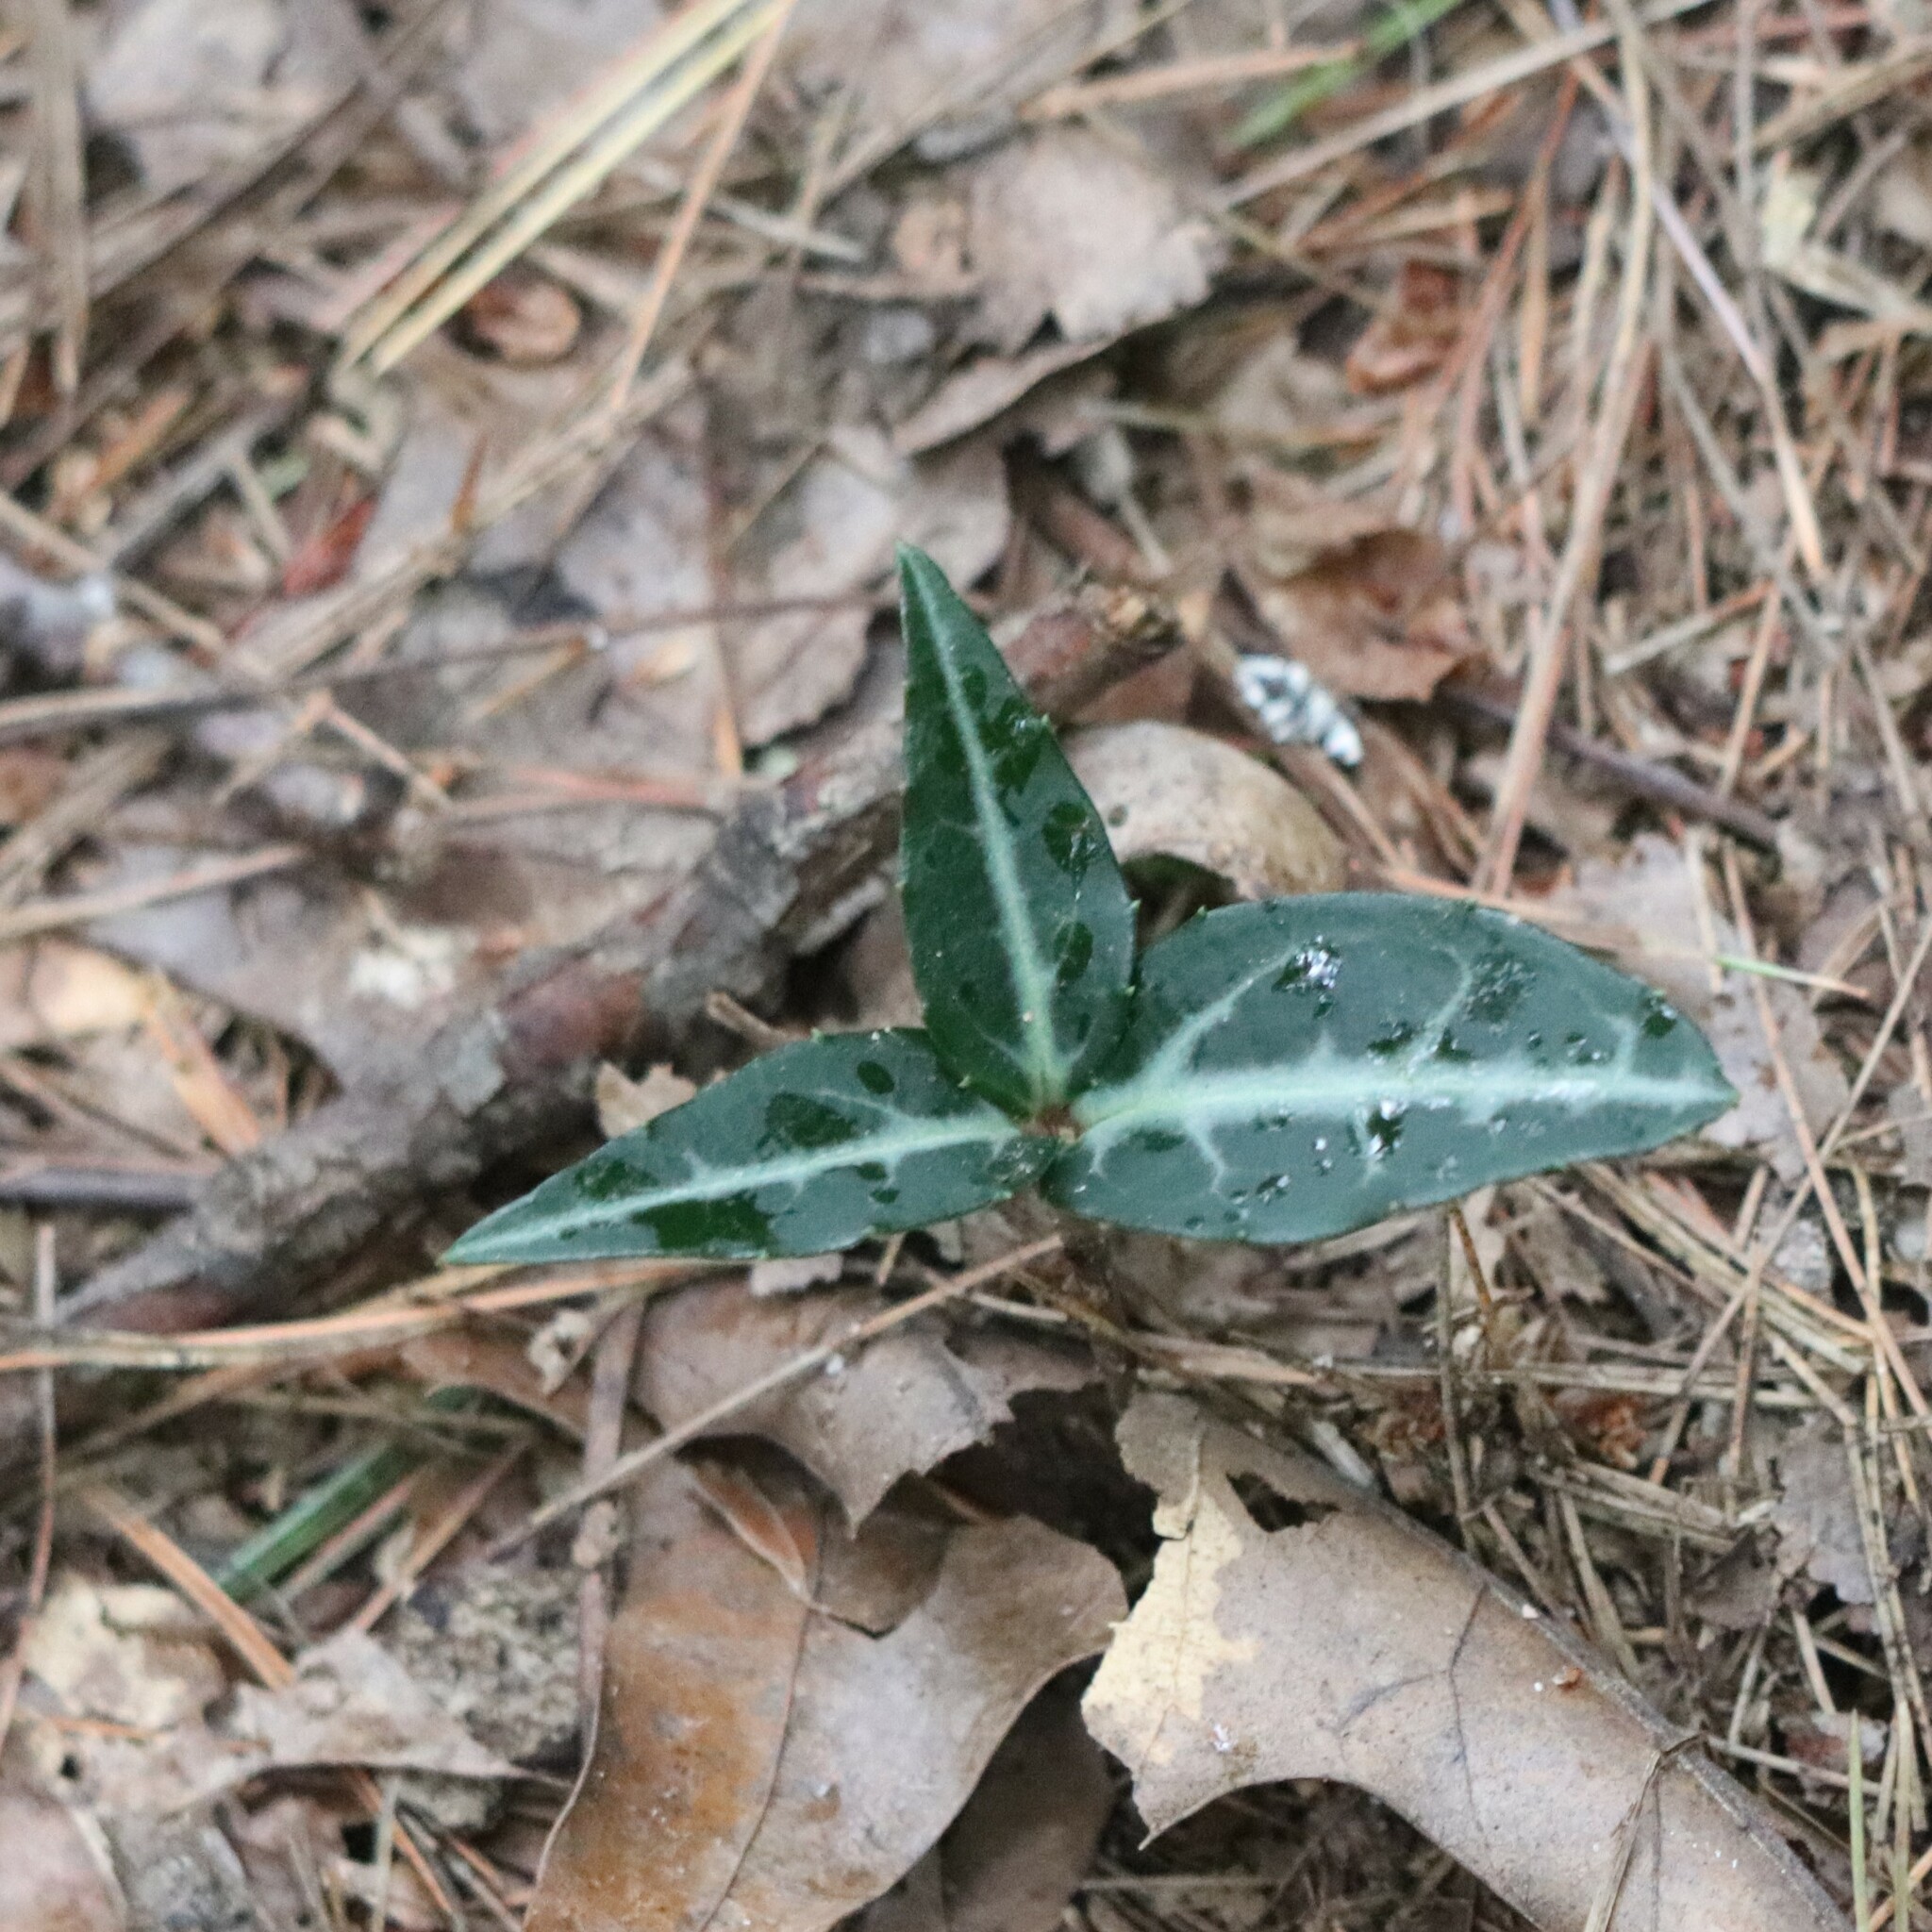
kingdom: Plantae
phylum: Tracheophyta
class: Magnoliopsida
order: Ericales
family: Ericaceae
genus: Chimaphila
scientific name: Chimaphila maculata
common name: Spotted pipsissewa
